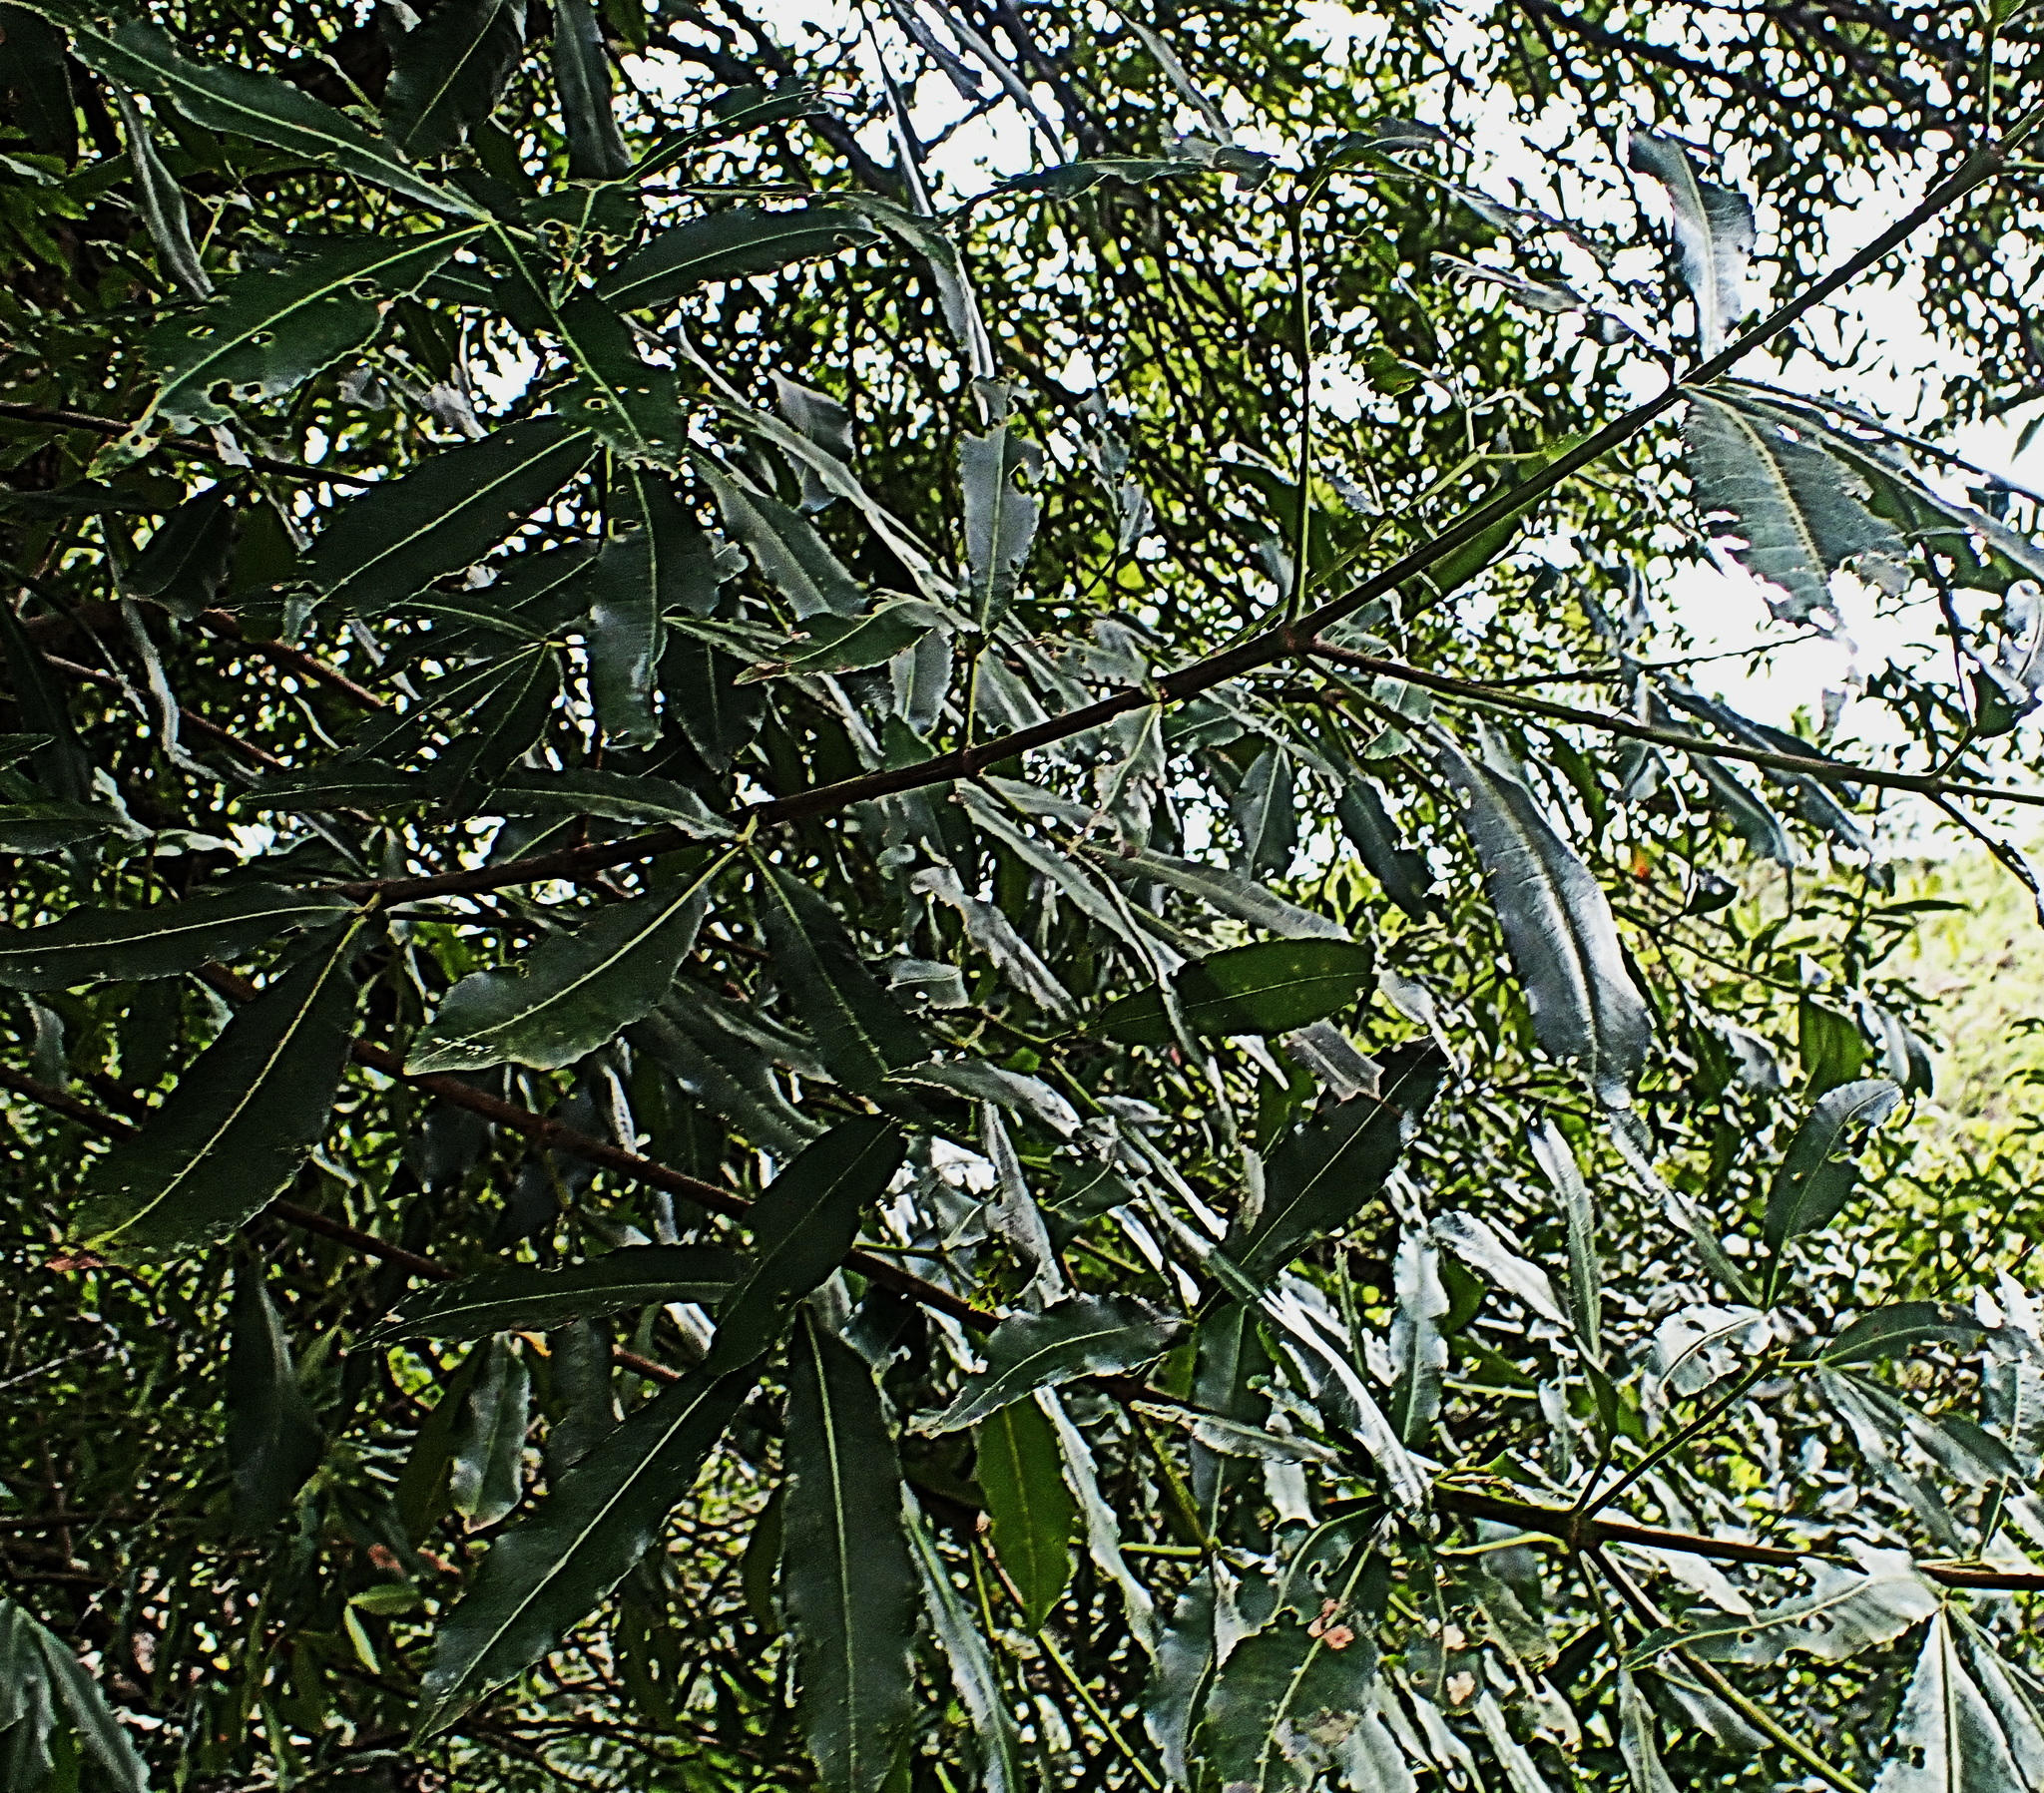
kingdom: Plantae
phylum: Tracheophyta
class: Magnoliopsida
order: Oxalidales
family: Cunoniaceae
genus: Platylophus
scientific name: Platylophus trifoliatus
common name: White alder
